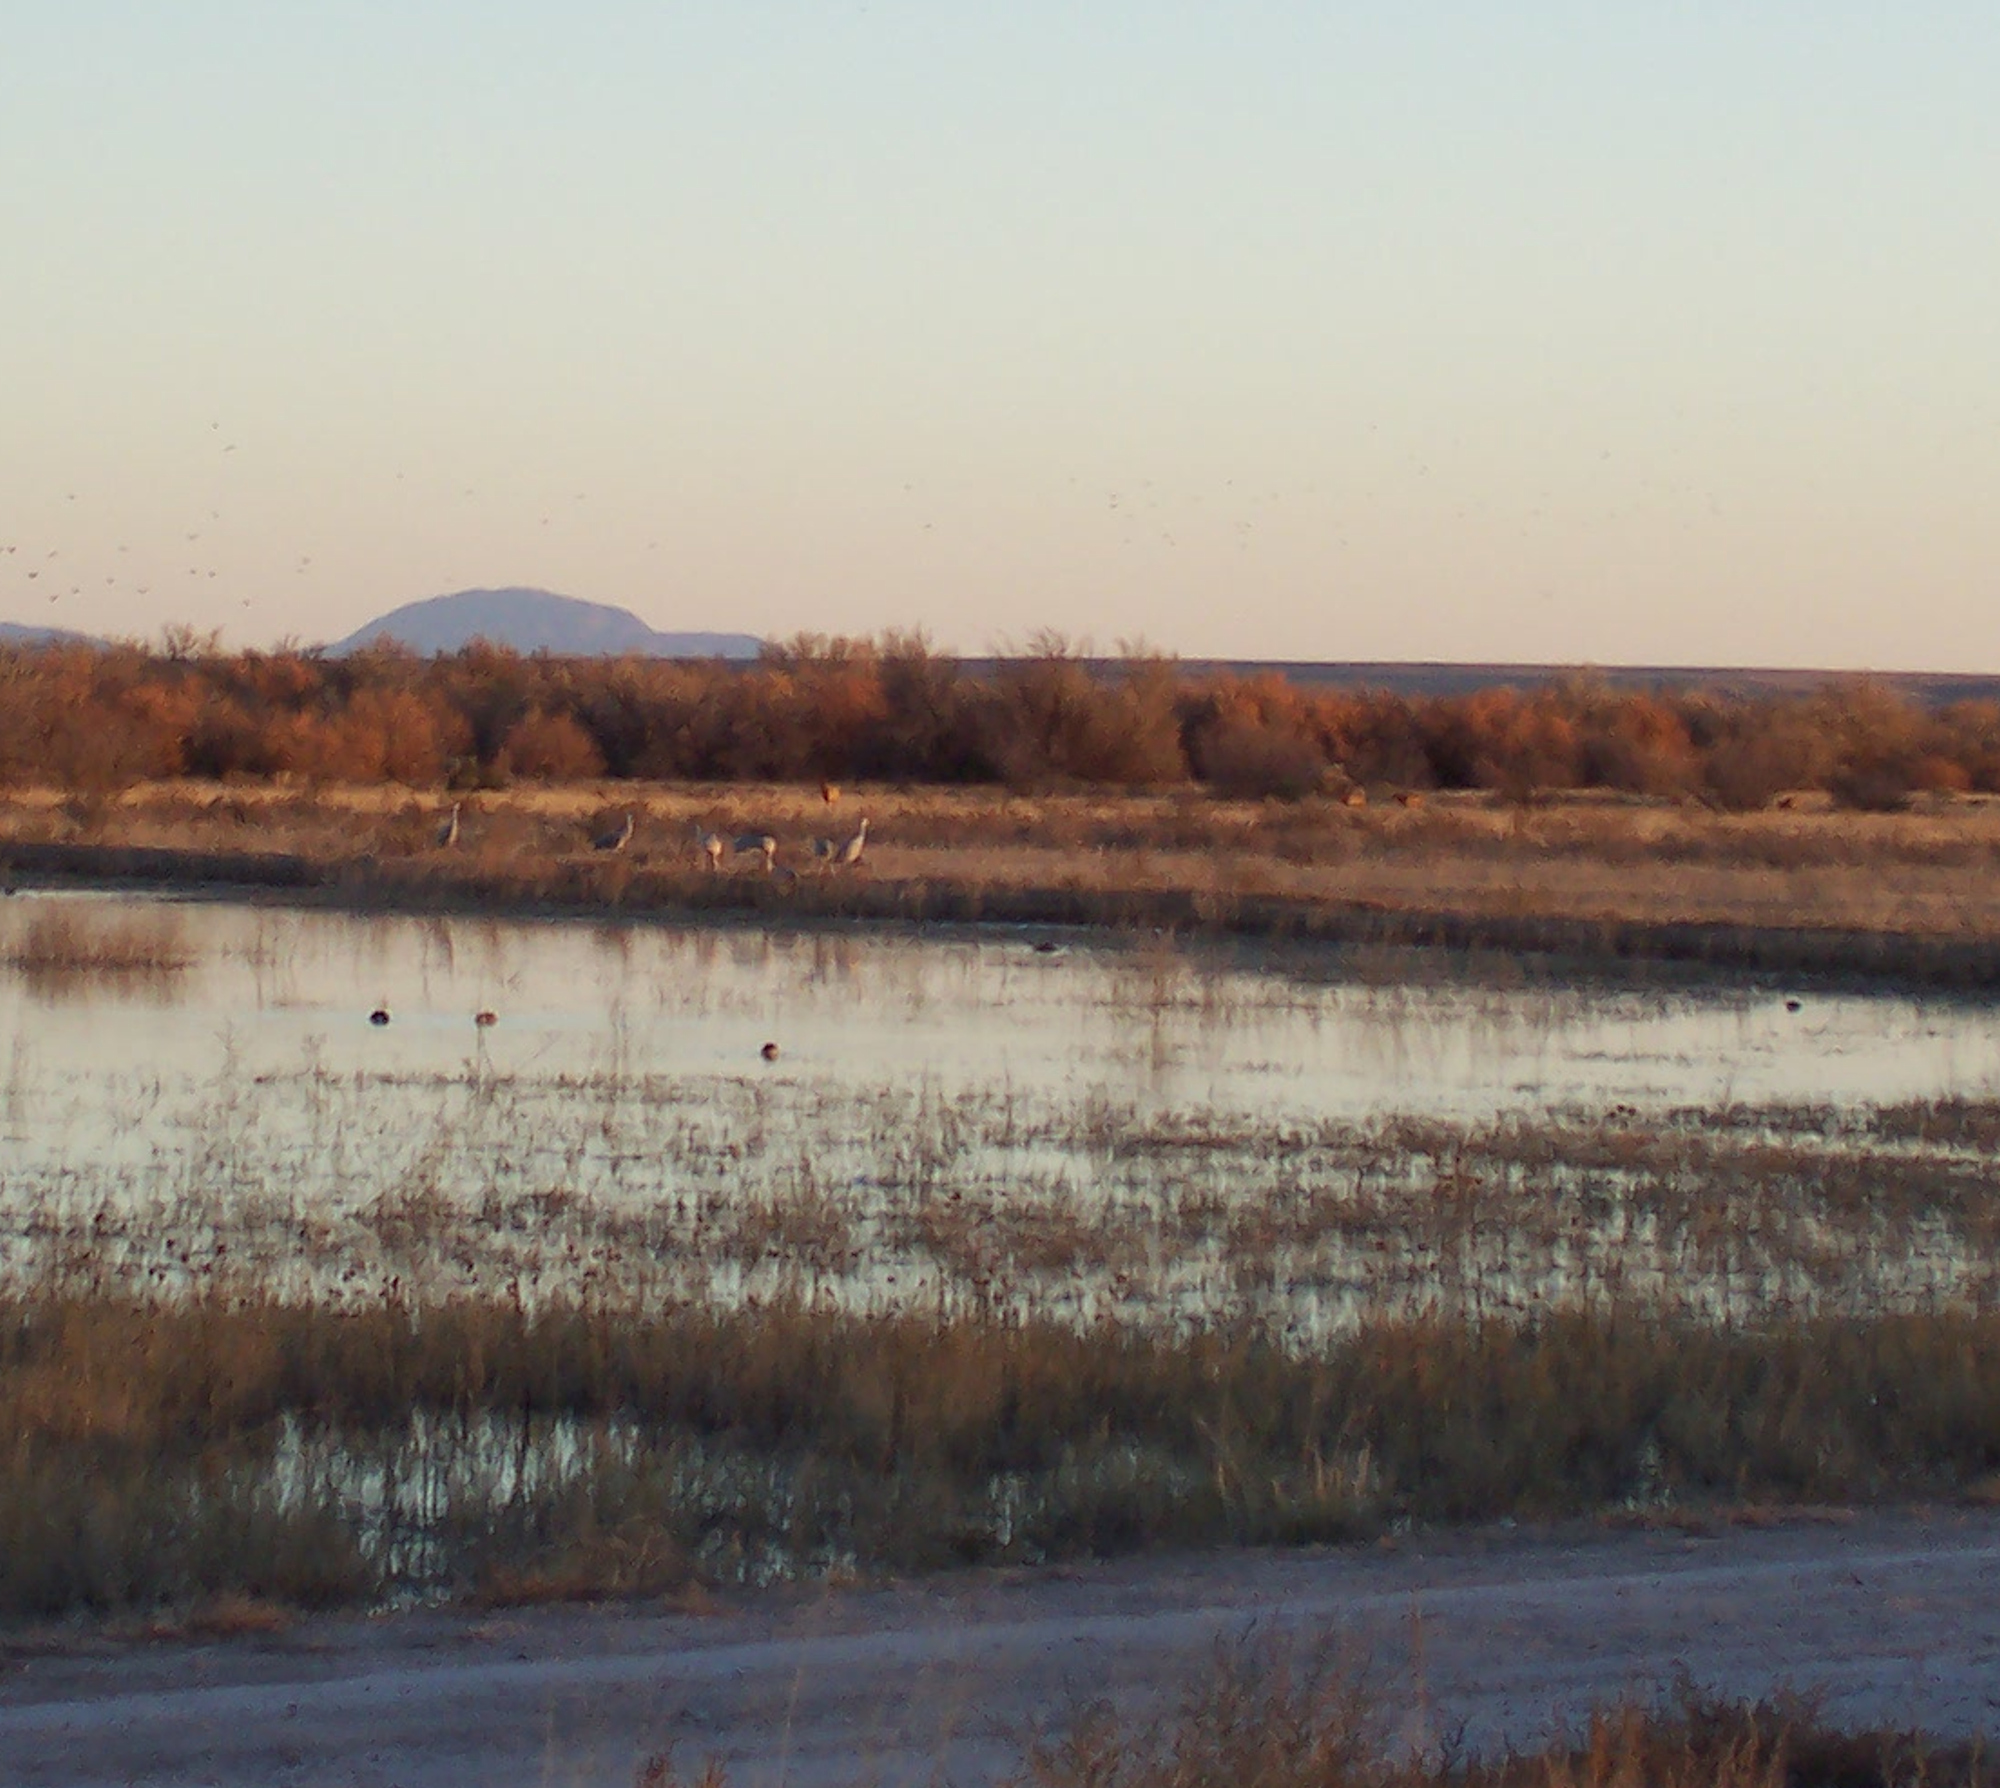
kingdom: Animalia
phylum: Chordata
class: Mammalia
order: Artiodactyla
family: Cervidae
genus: Cervus
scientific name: Cervus elaphus
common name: Red deer
